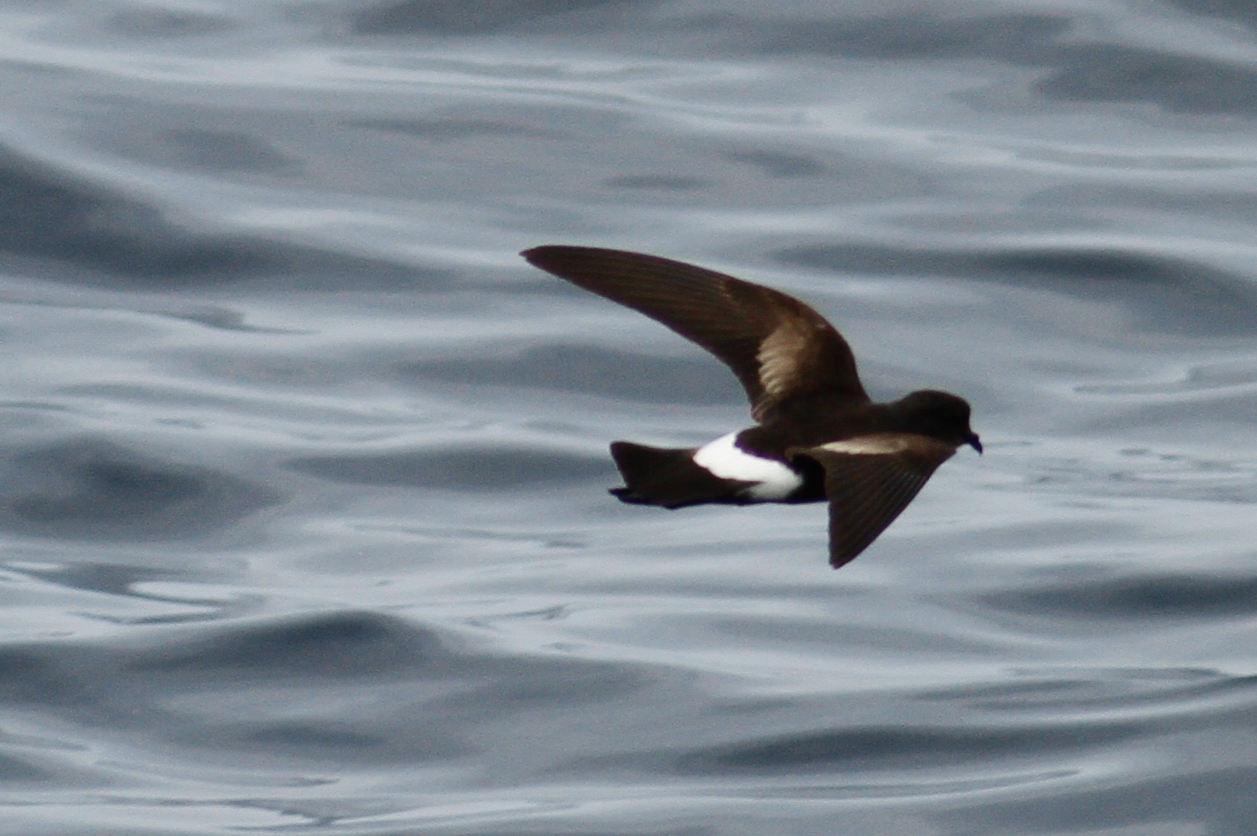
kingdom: Animalia
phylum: Chordata
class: Aves
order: Procellariiformes
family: Hydrobatidae
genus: Oceanites
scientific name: Oceanites oceanicus
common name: Wilson's storm petrel
